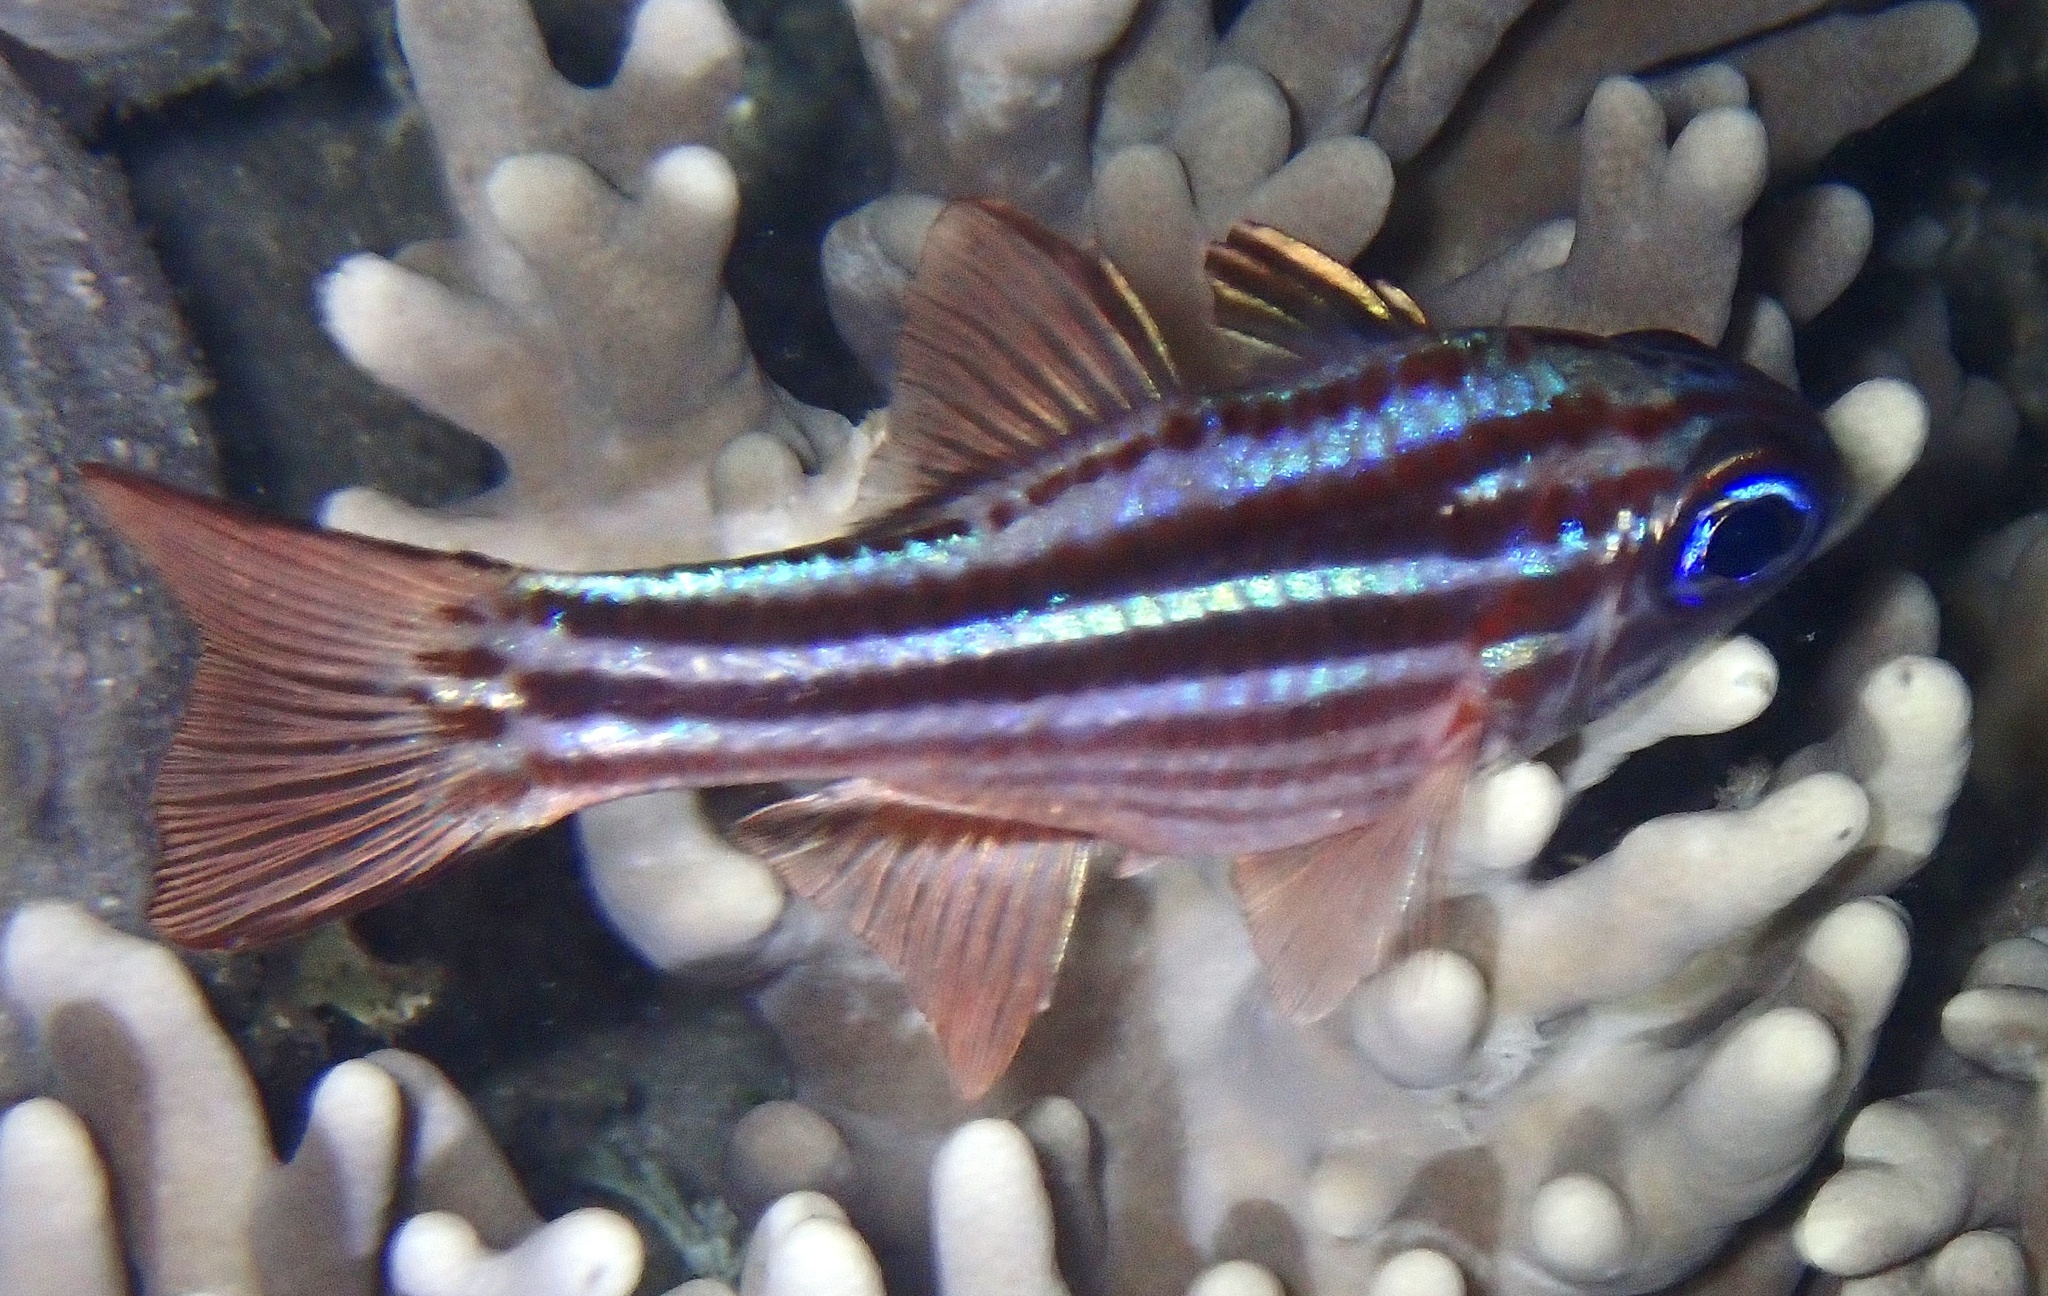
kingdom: Animalia
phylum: Chordata
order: Perciformes
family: Apogonidae
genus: Ostorhinchus
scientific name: Ostorhinchus compressus
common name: Ochre-striped cardinalfish
